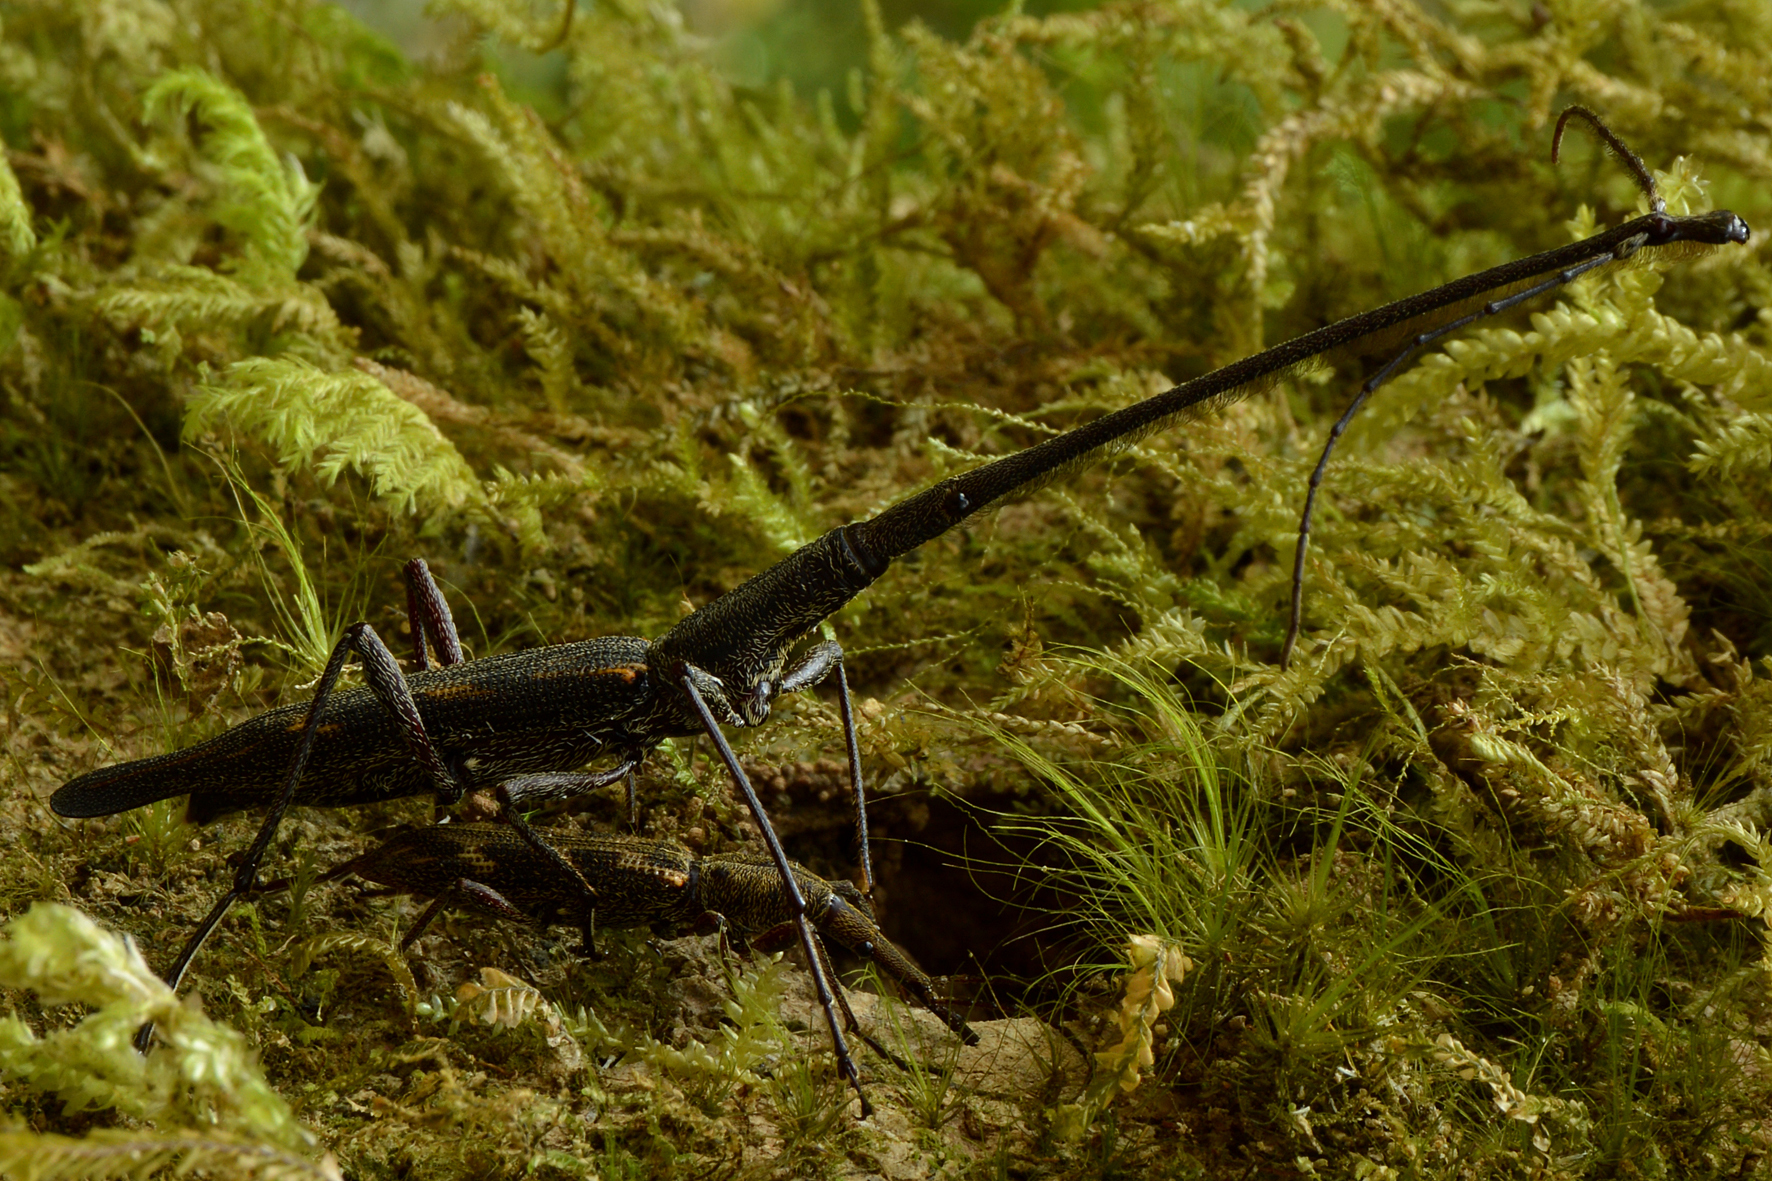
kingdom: Animalia
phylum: Arthropoda
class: Insecta
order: Coleoptera
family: Brentidae
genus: Lasiorhynchus
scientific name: Lasiorhynchus barbicornis
